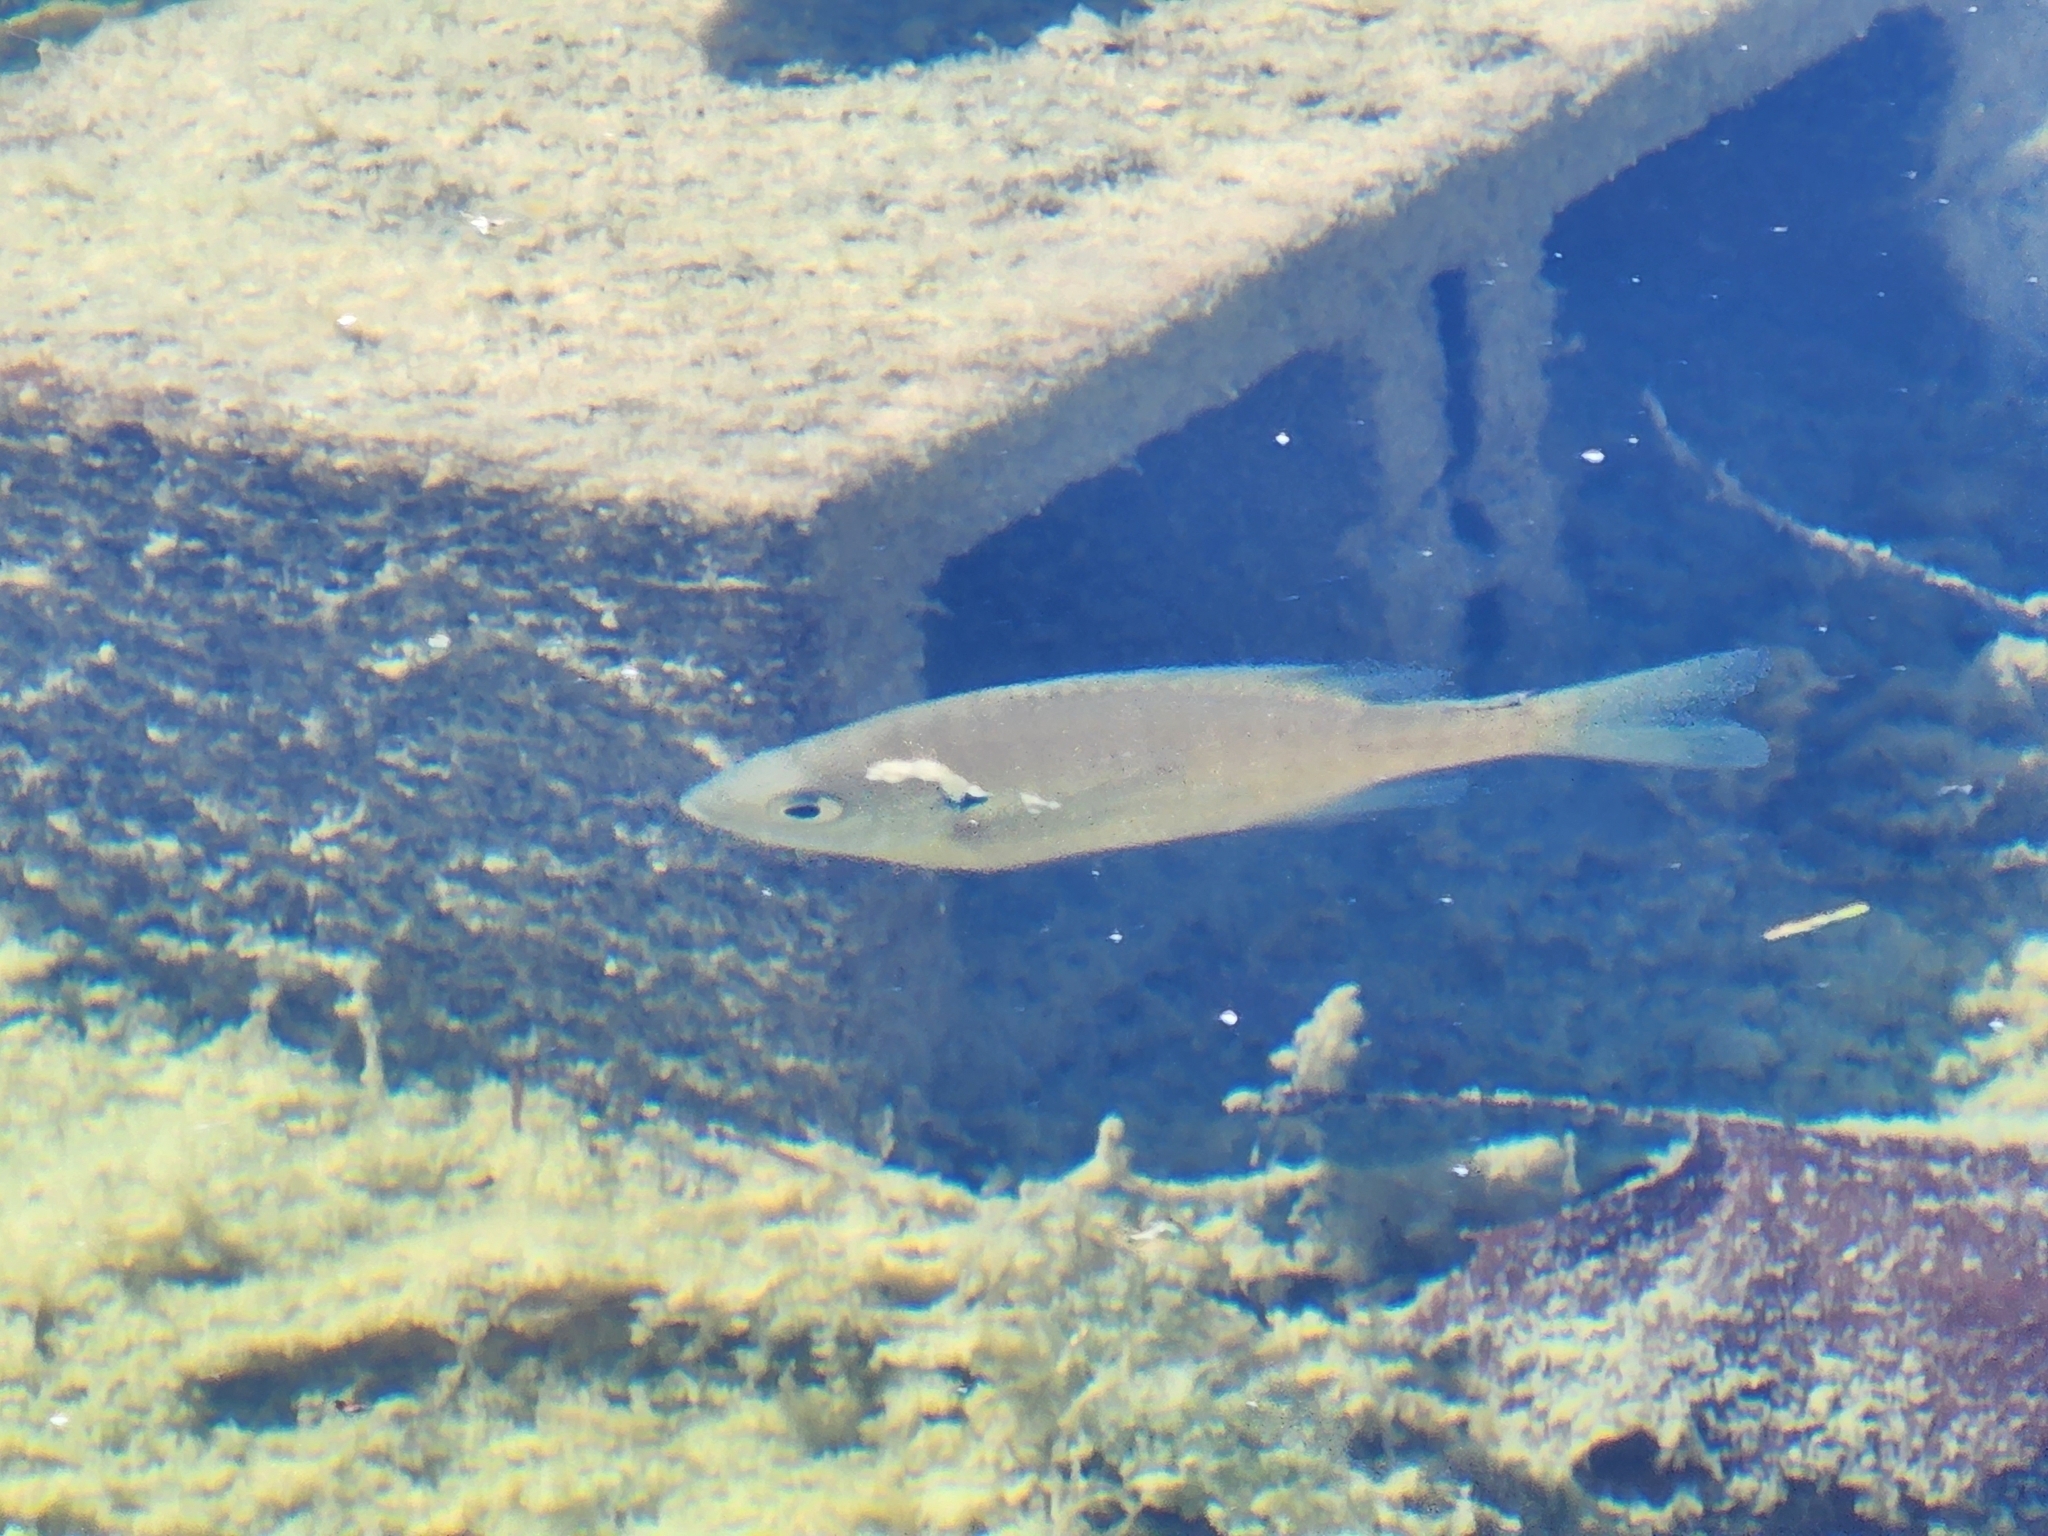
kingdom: Animalia
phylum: Chordata
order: Perciformes
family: Centrarchidae
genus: Lepomis
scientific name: Lepomis macrochirus
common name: Bluegill
